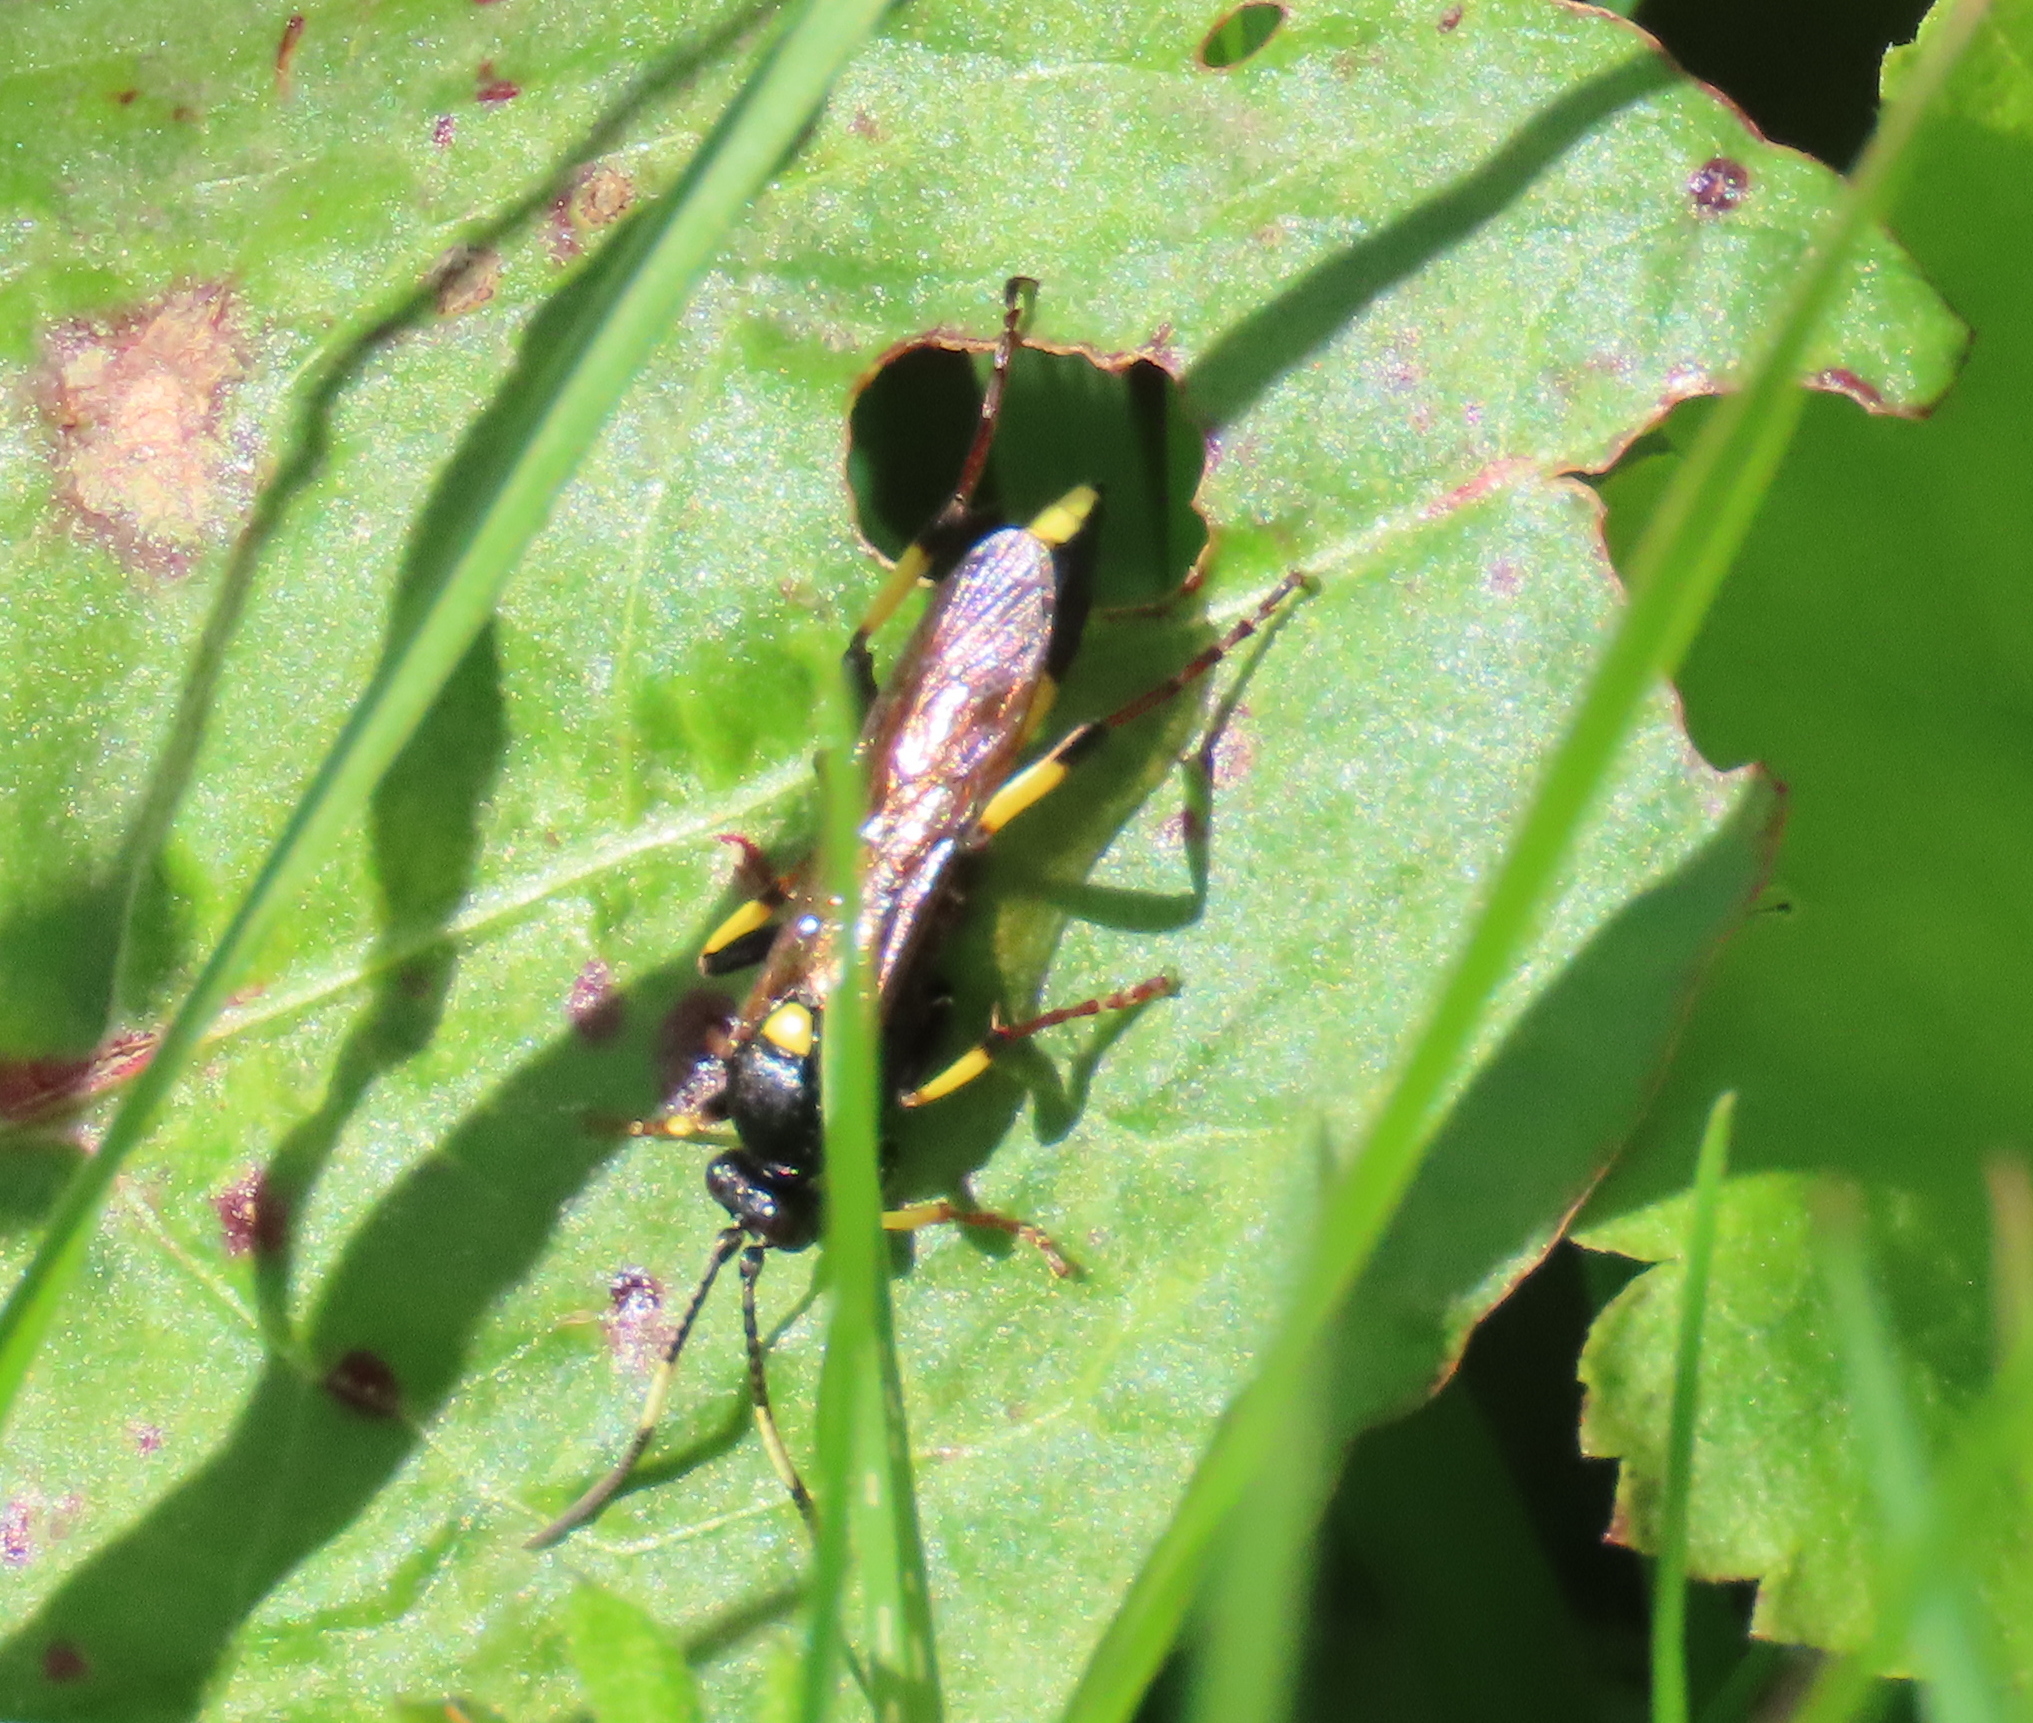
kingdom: Animalia
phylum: Arthropoda
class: Insecta
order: Hymenoptera
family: Ichneumonidae
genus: Ichneumon
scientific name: Ichneumon stramentor
